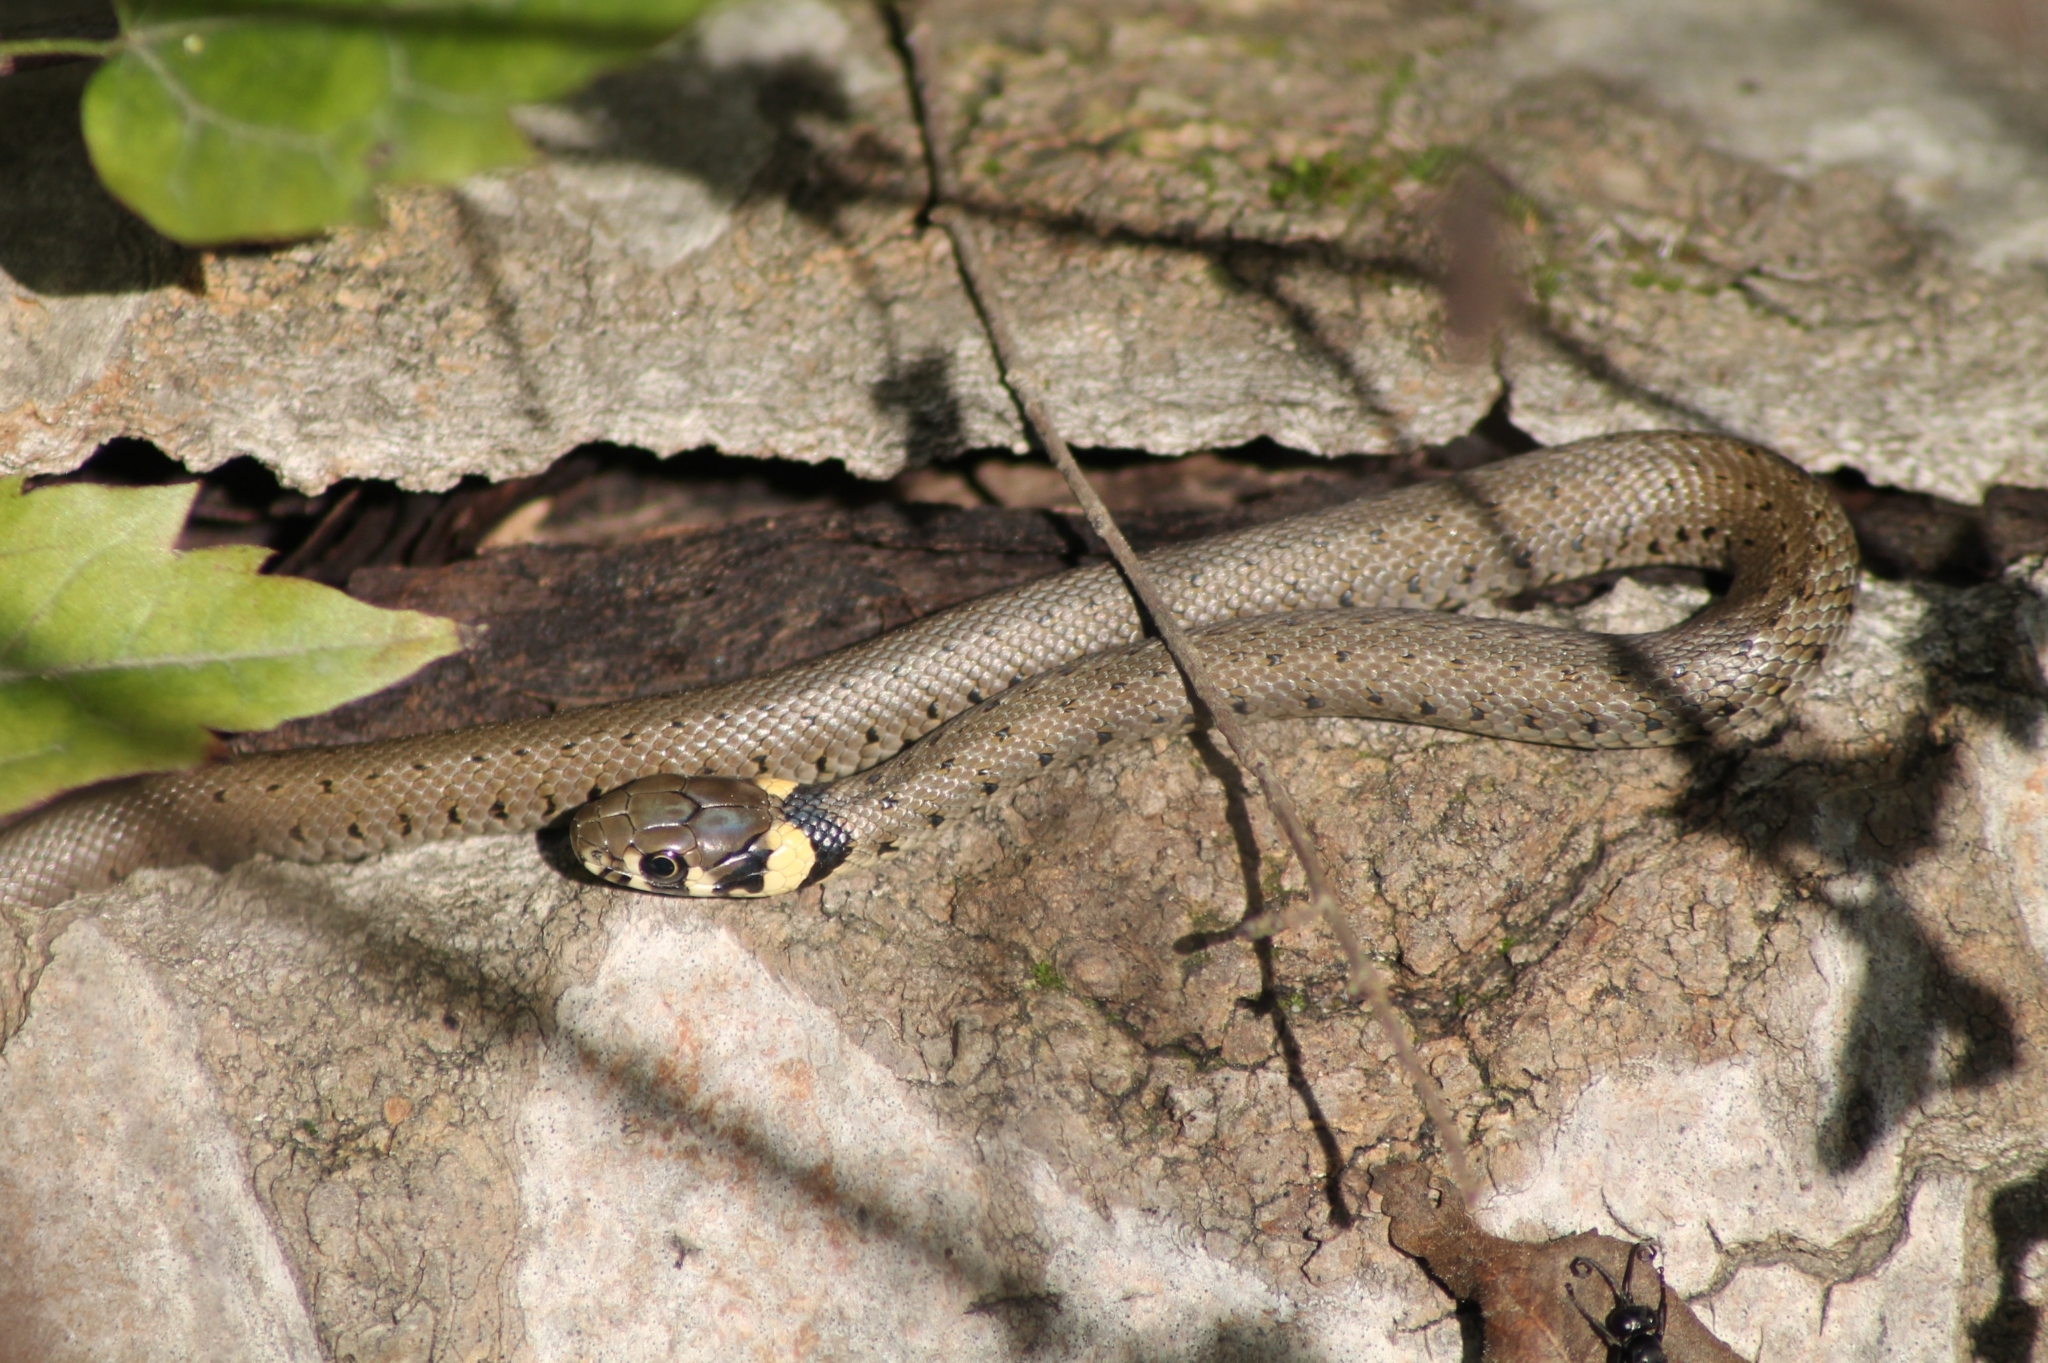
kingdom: Animalia
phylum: Chordata
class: Squamata
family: Colubridae
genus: Natrix
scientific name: Natrix natrix
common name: Grass snake
